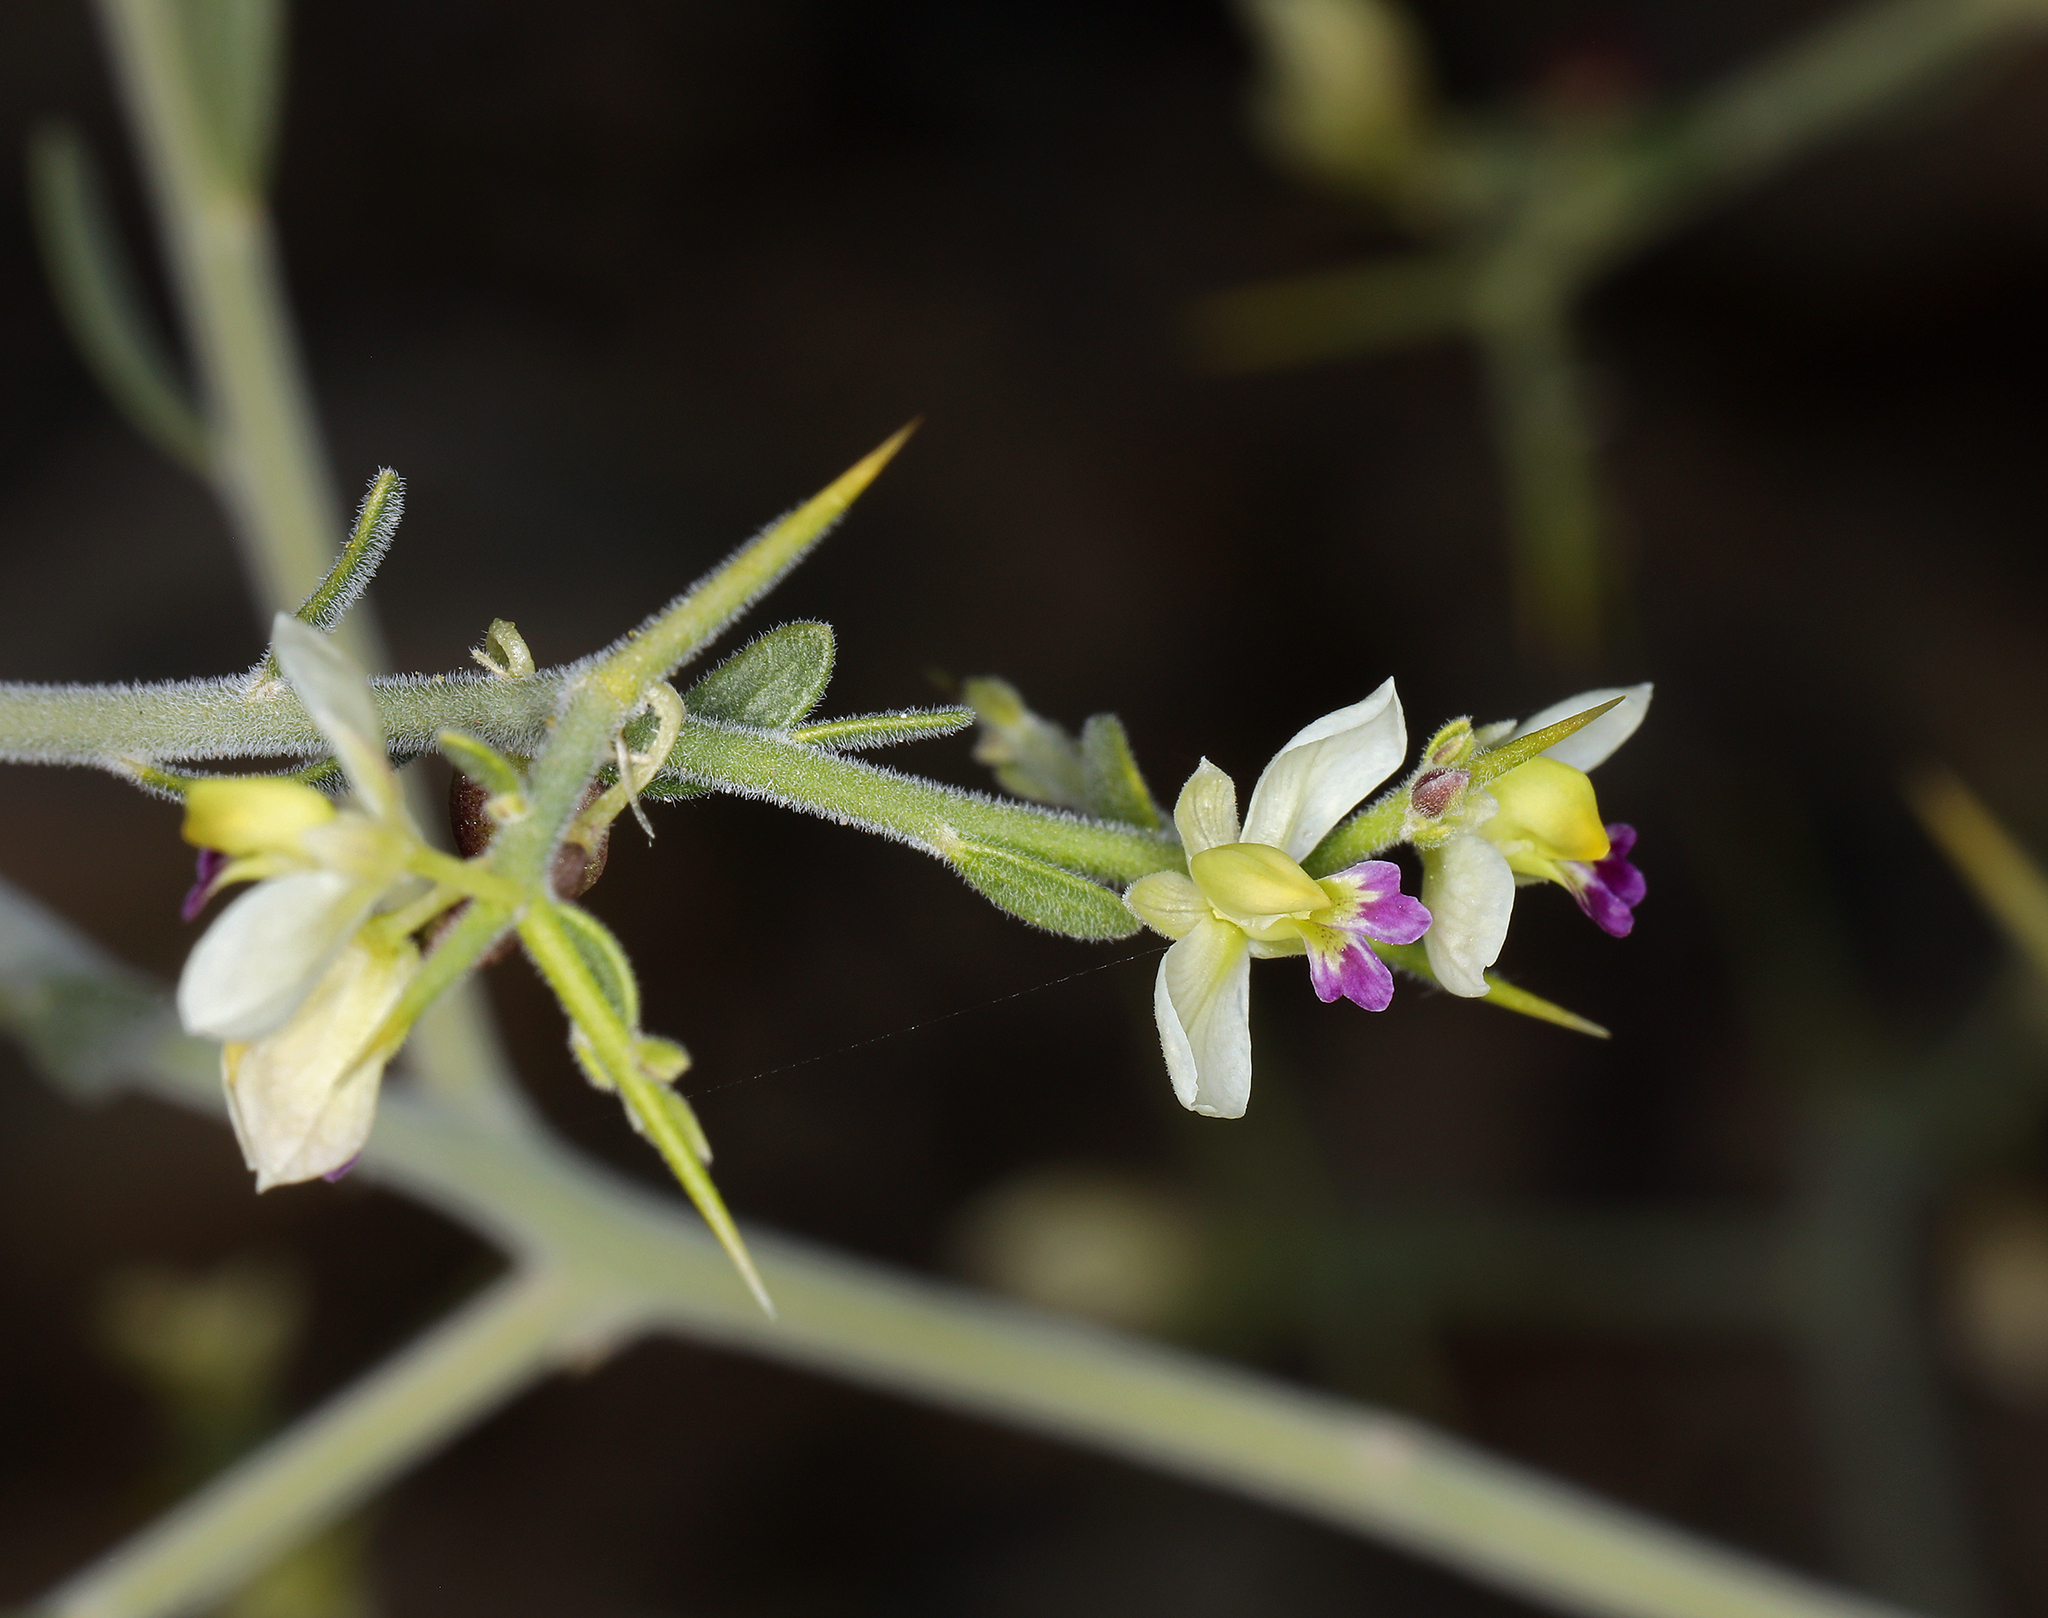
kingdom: Plantae
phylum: Tracheophyta
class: Magnoliopsida
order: Fabales
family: Polygalaceae
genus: Rhinotropis
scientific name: Rhinotropis acanthoclada
